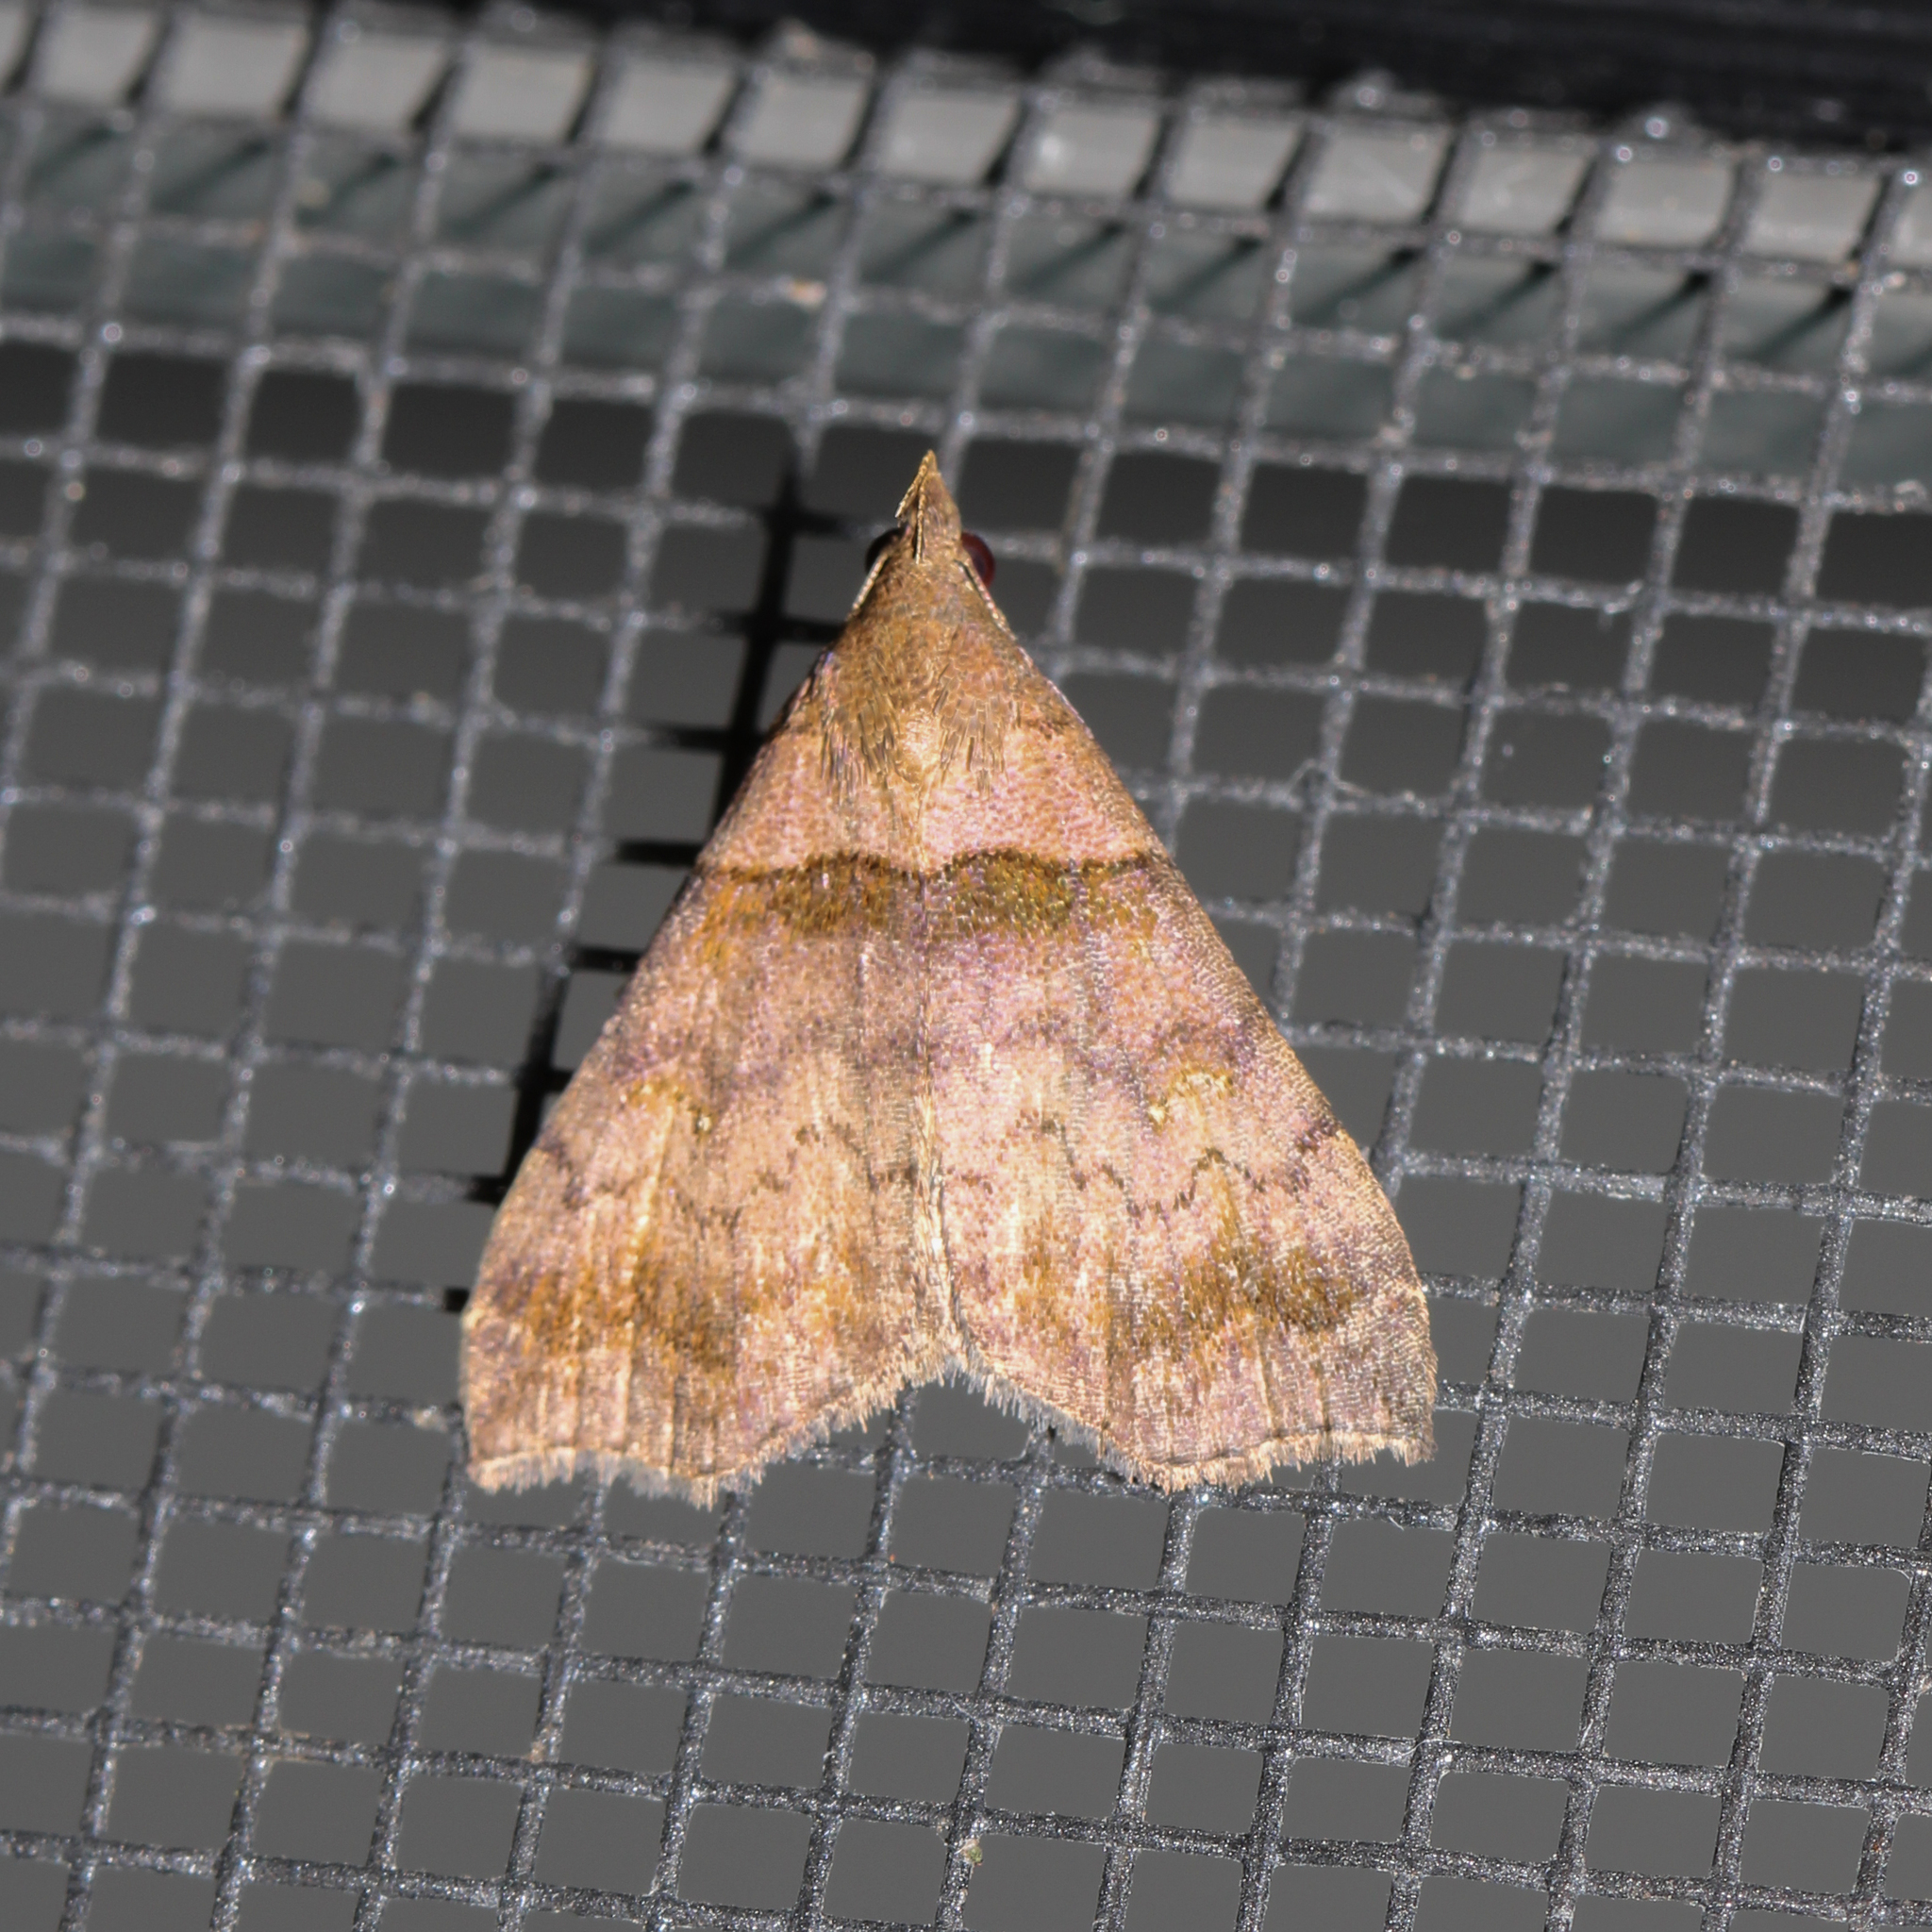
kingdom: Animalia
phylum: Arthropoda
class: Insecta
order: Lepidoptera
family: Erebidae
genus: Lascoria
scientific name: Lascoria ambigualis
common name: Ambiguous moth
